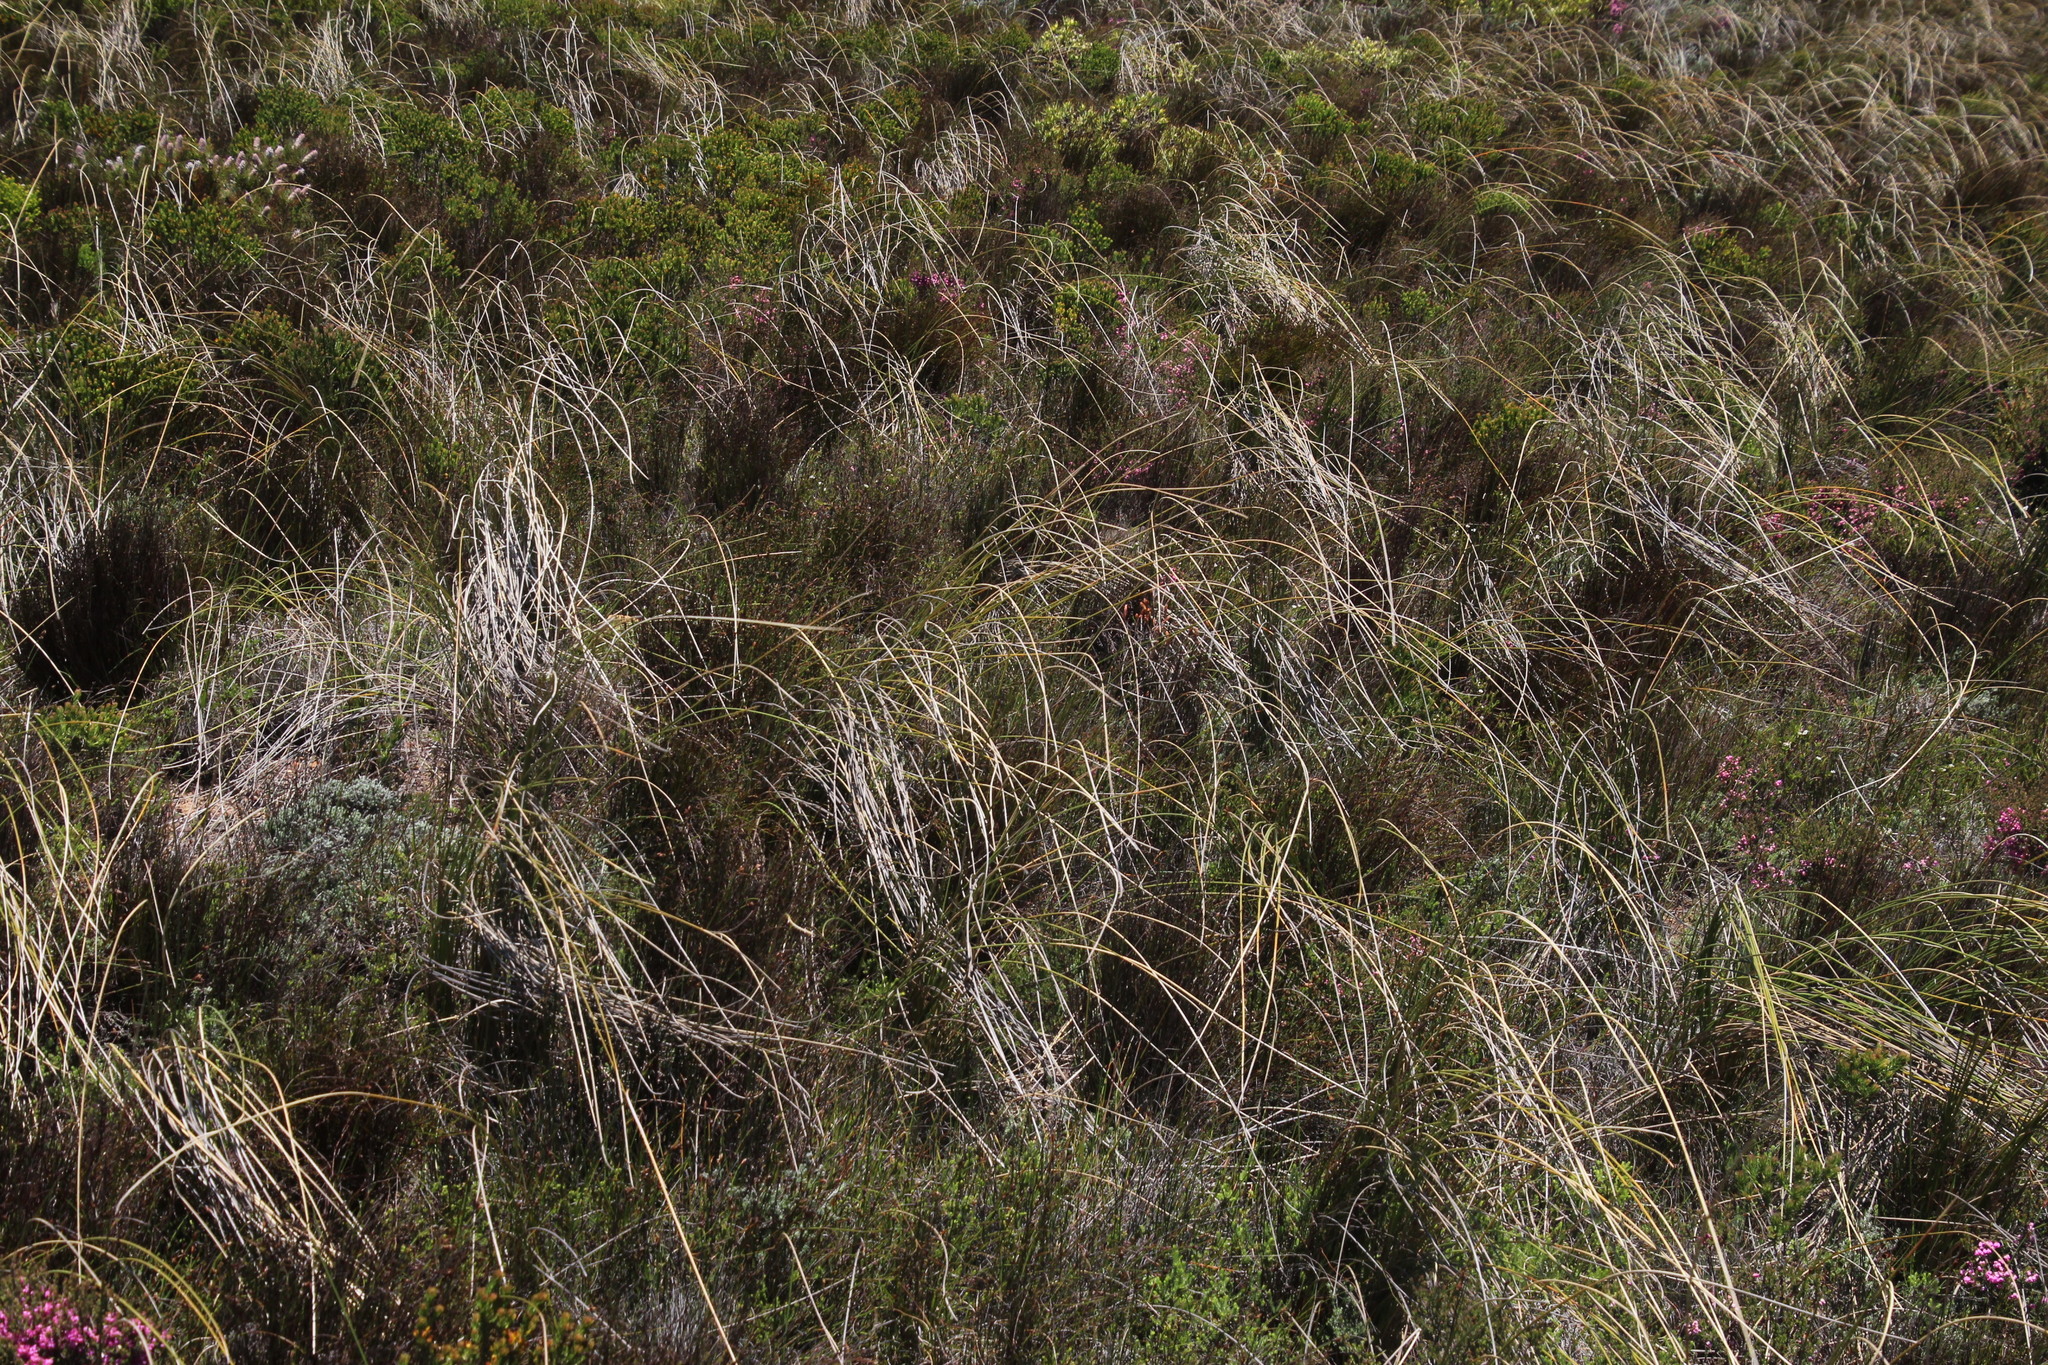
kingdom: Plantae
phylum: Tracheophyta
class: Liliopsida
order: Asparagales
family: Iridaceae
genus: Bobartia
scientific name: Bobartia indica
